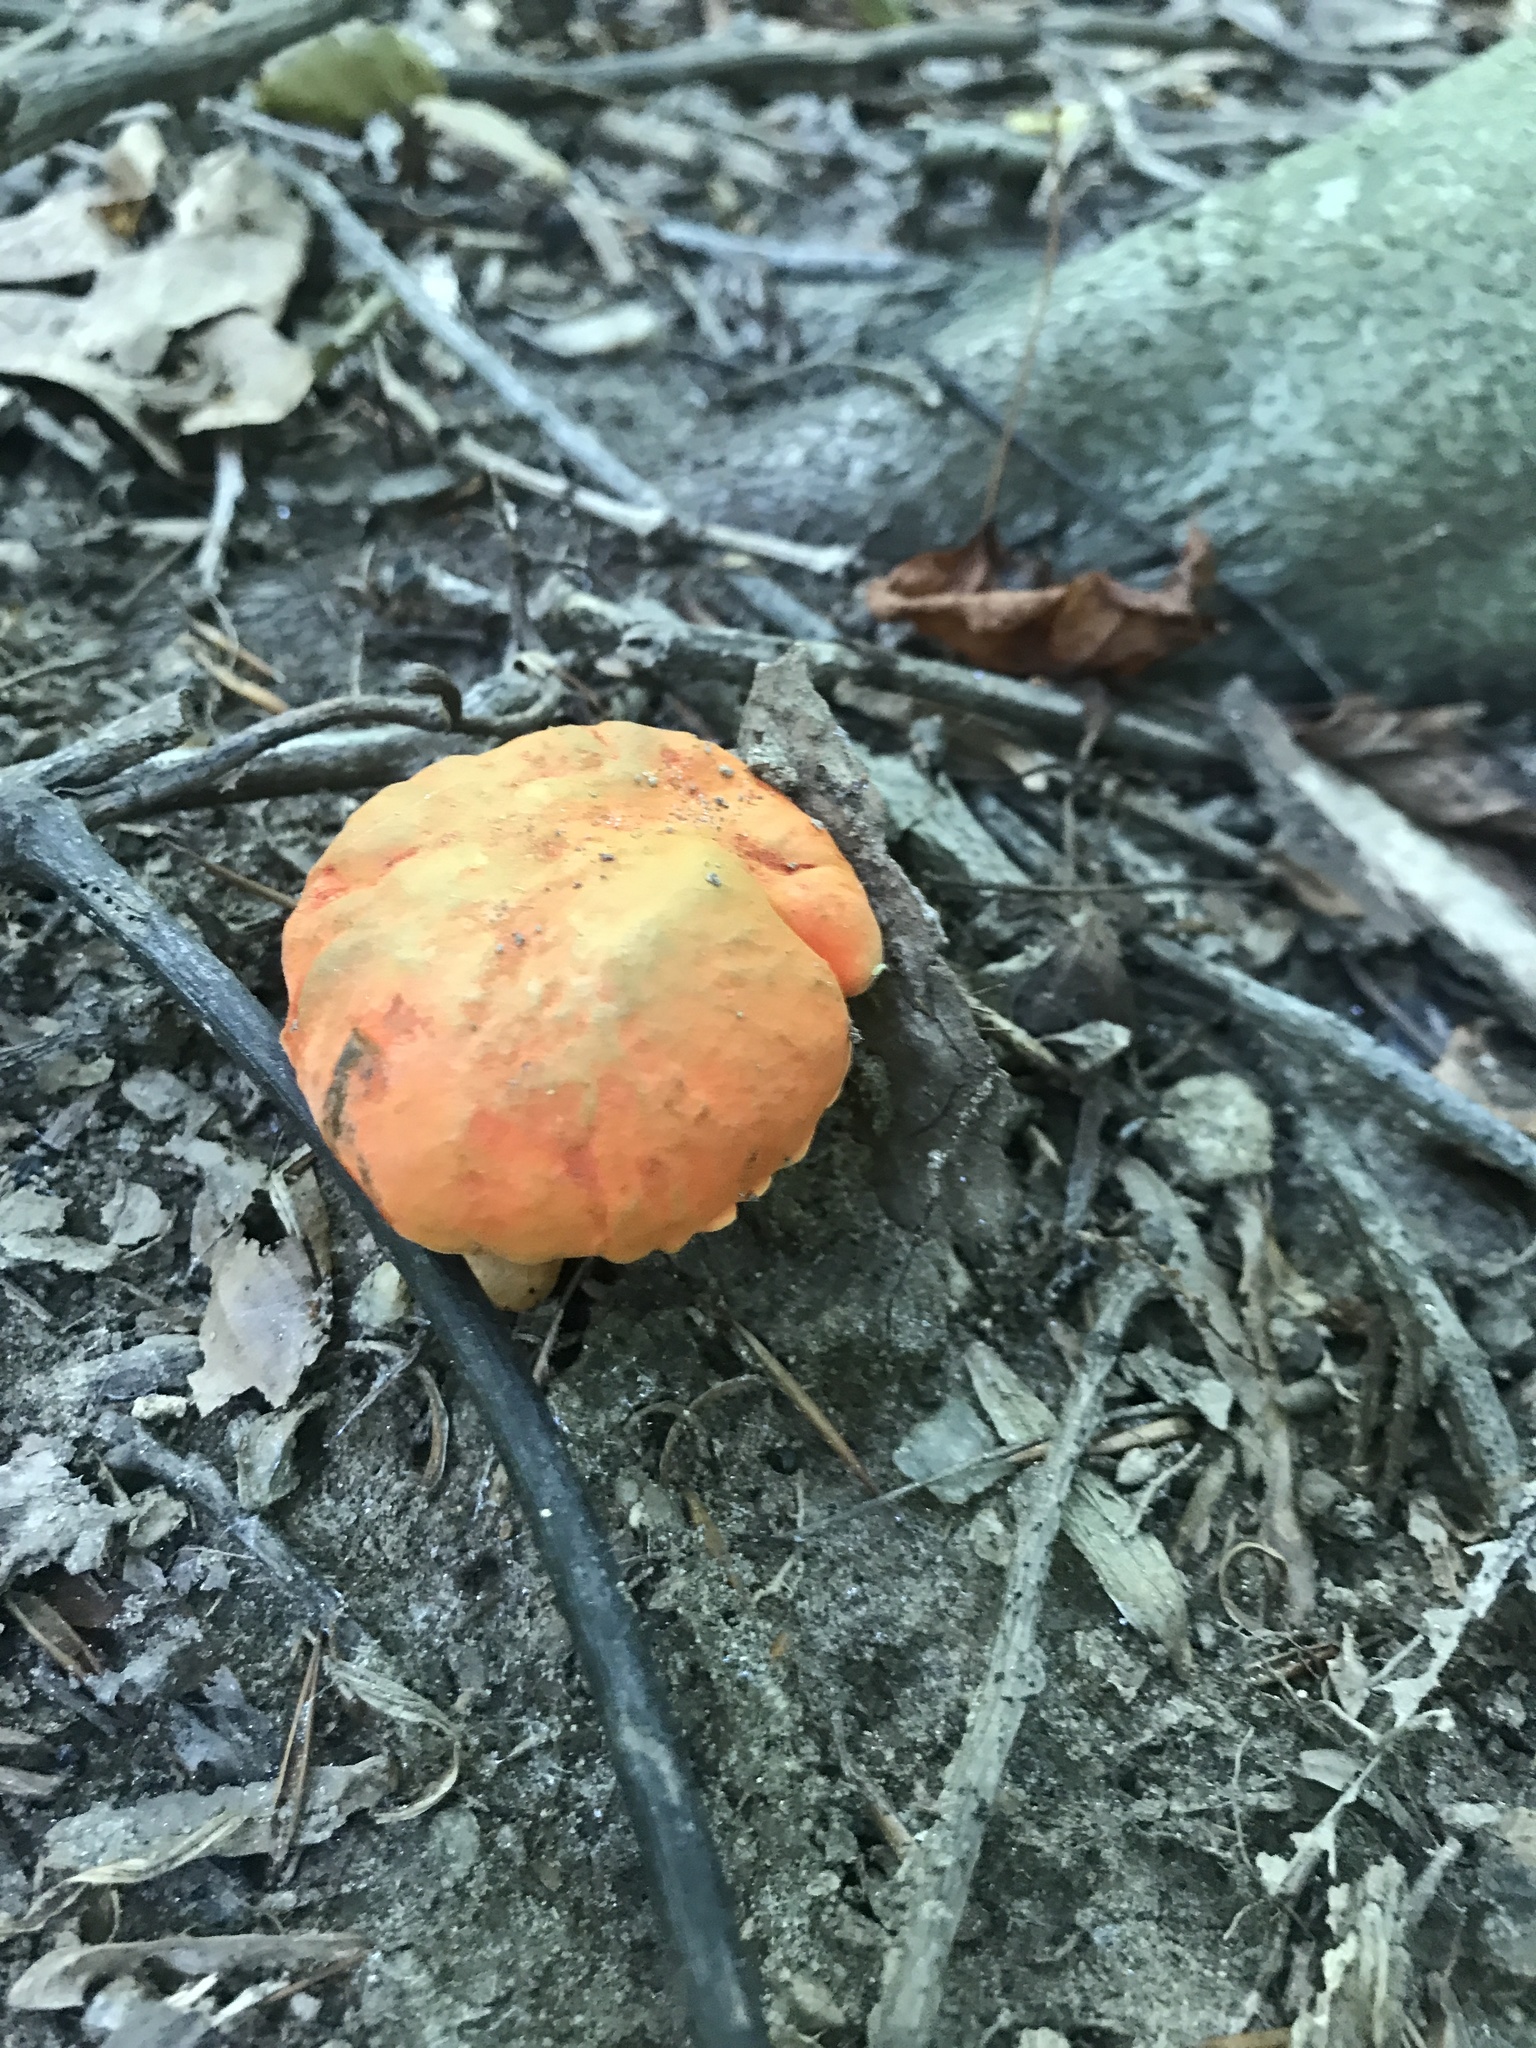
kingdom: Fungi
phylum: Basidiomycota
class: Agaricomycetes
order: Boletales
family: Boletaceae
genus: Tylopilus
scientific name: Tylopilus balloui
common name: Burnt-orange bolete
